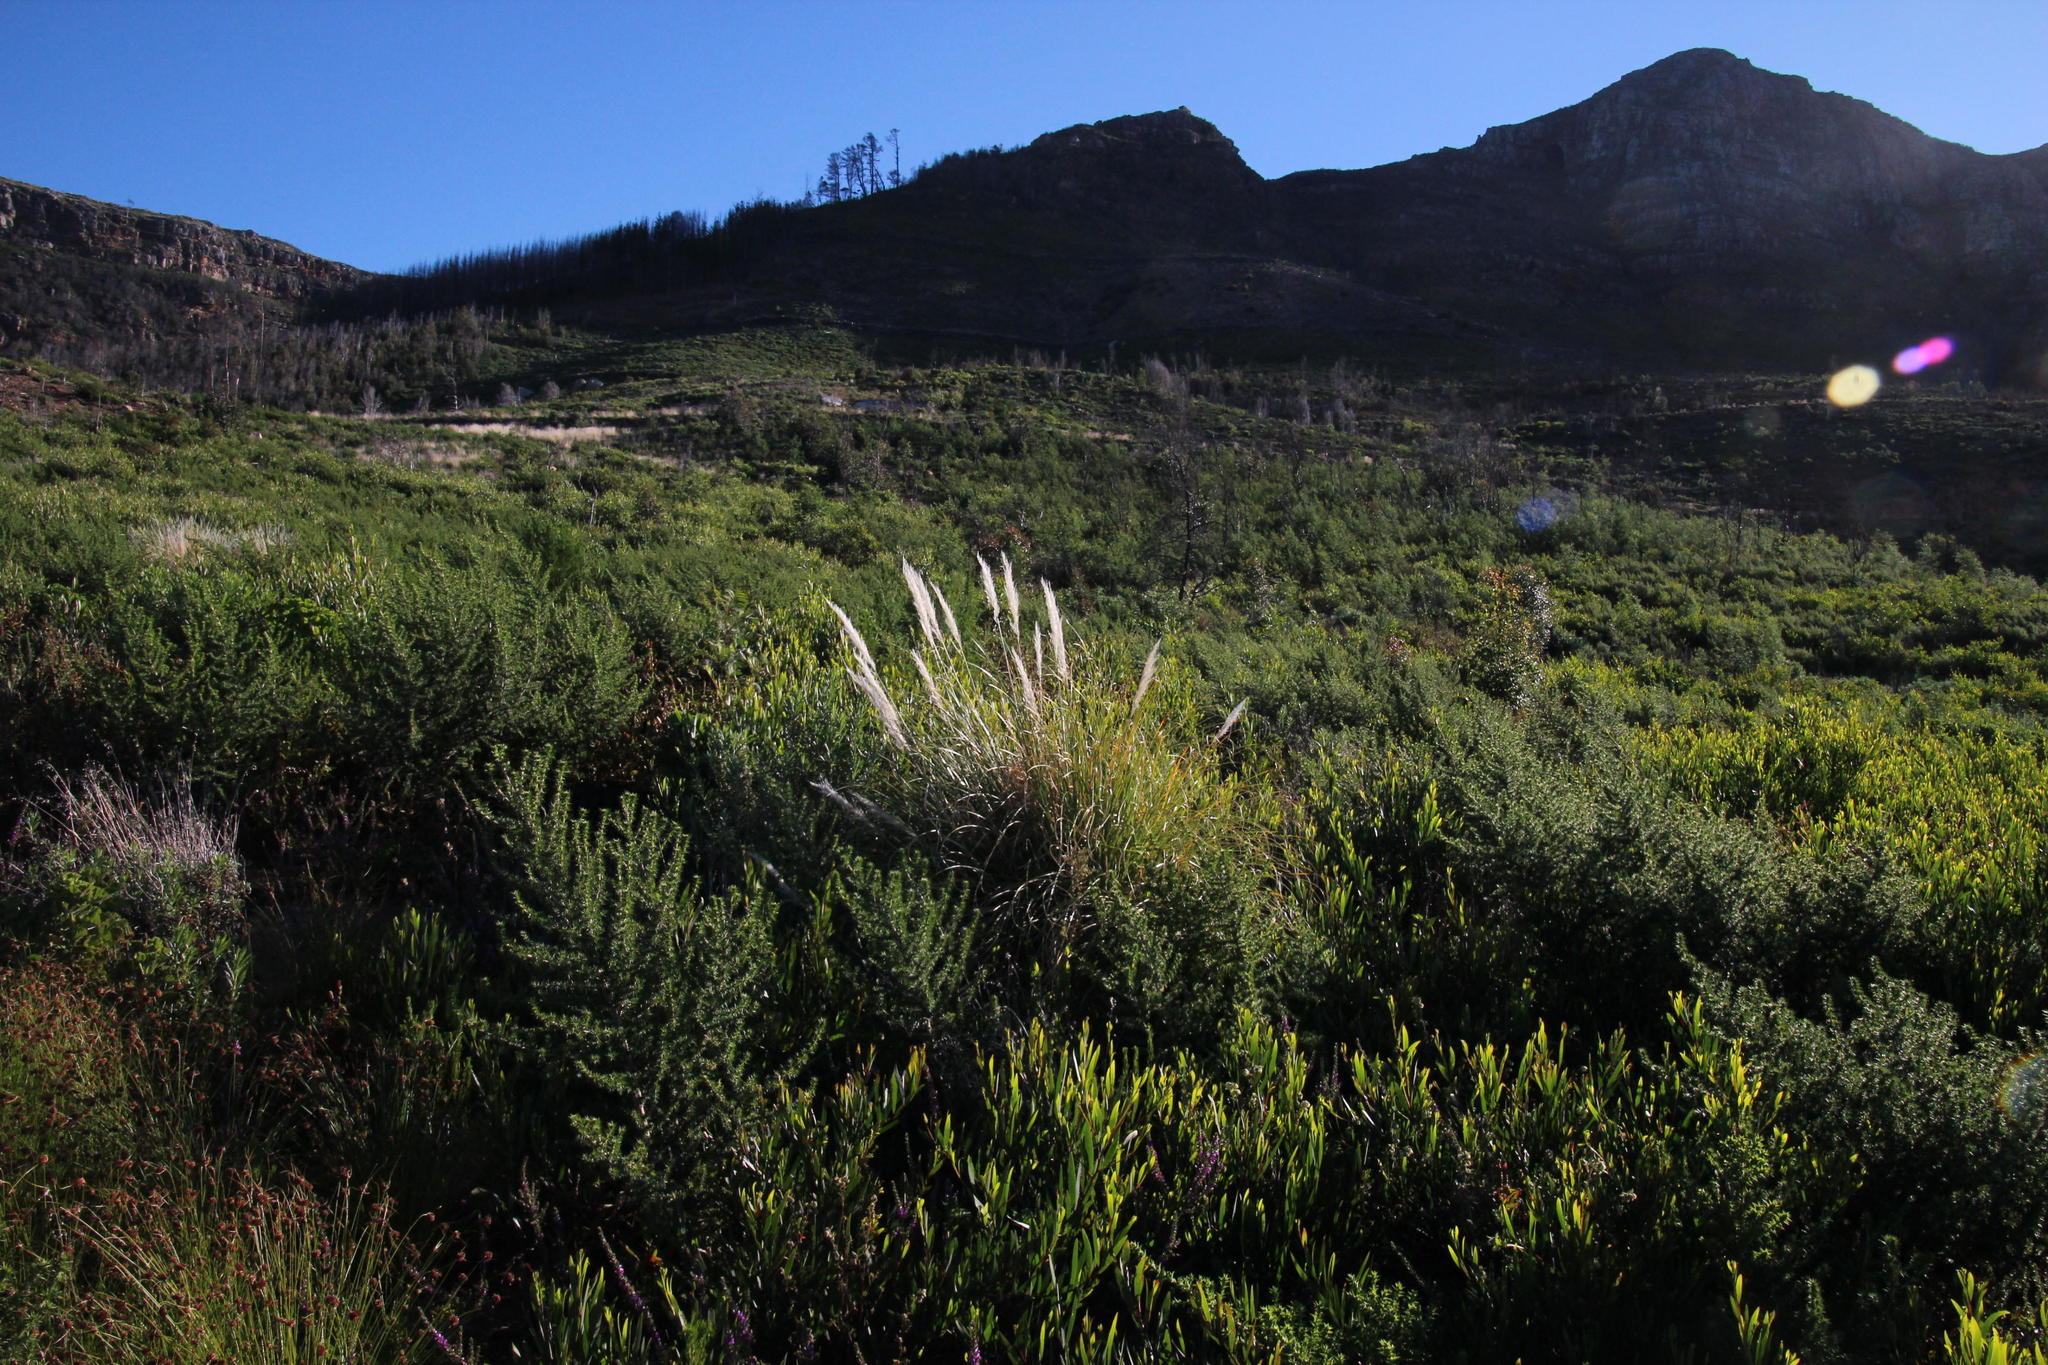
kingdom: Plantae
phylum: Tracheophyta
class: Liliopsida
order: Poales
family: Poaceae
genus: Cortaderia
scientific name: Cortaderia selloana
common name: Uruguayan pampas grass
